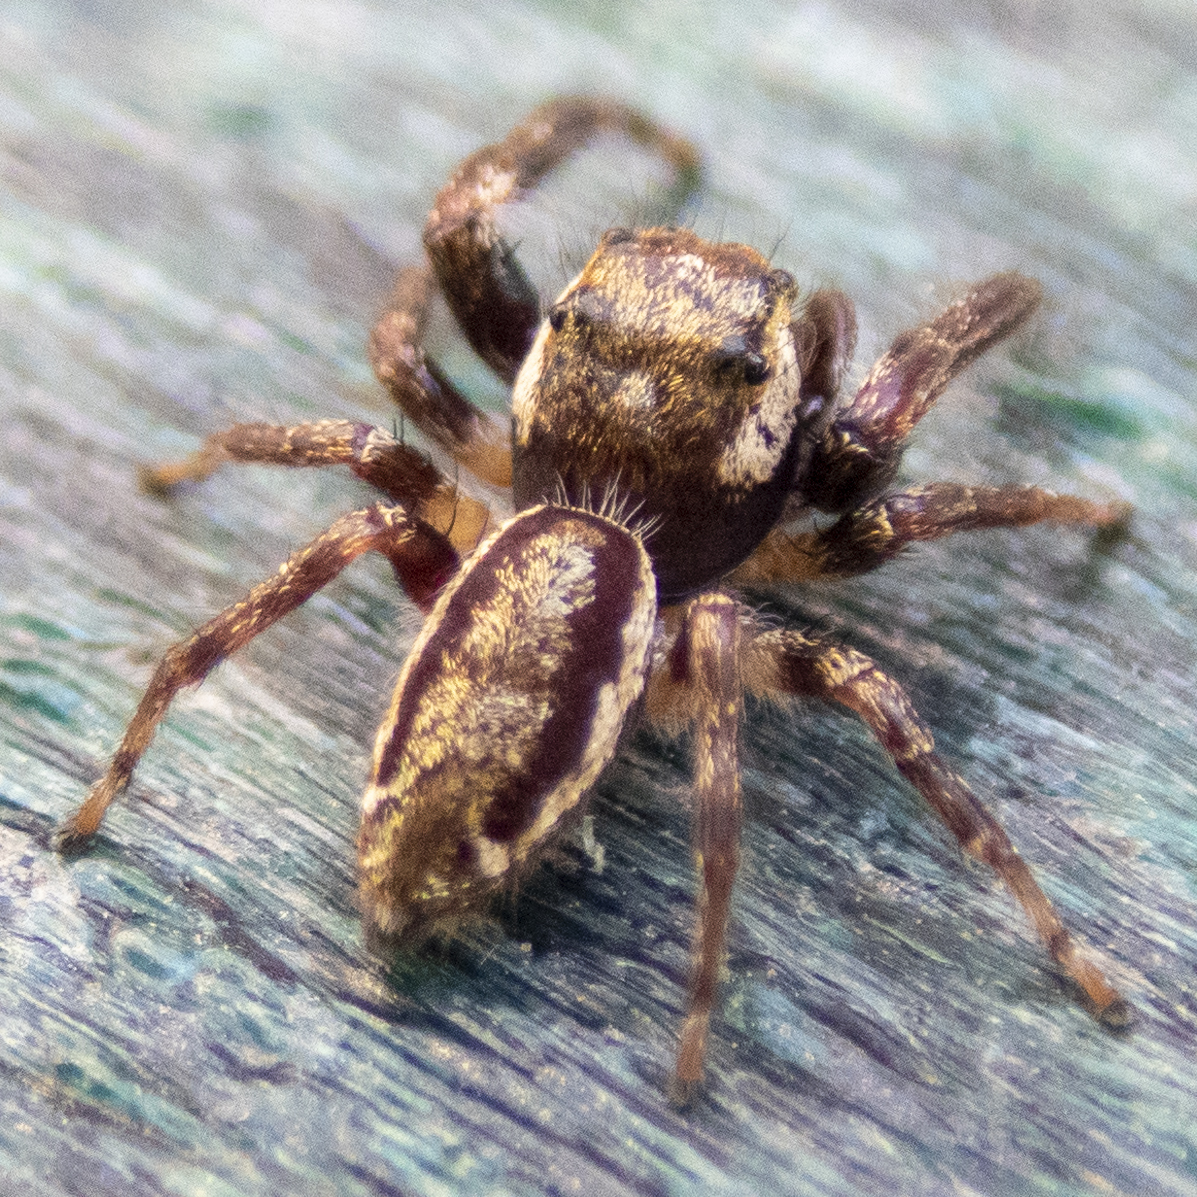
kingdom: Animalia
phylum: Arthropoda
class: Arachnida
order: Araneae
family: Salticidae
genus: Eris
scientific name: Eris militaris
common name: Bronze jumper
